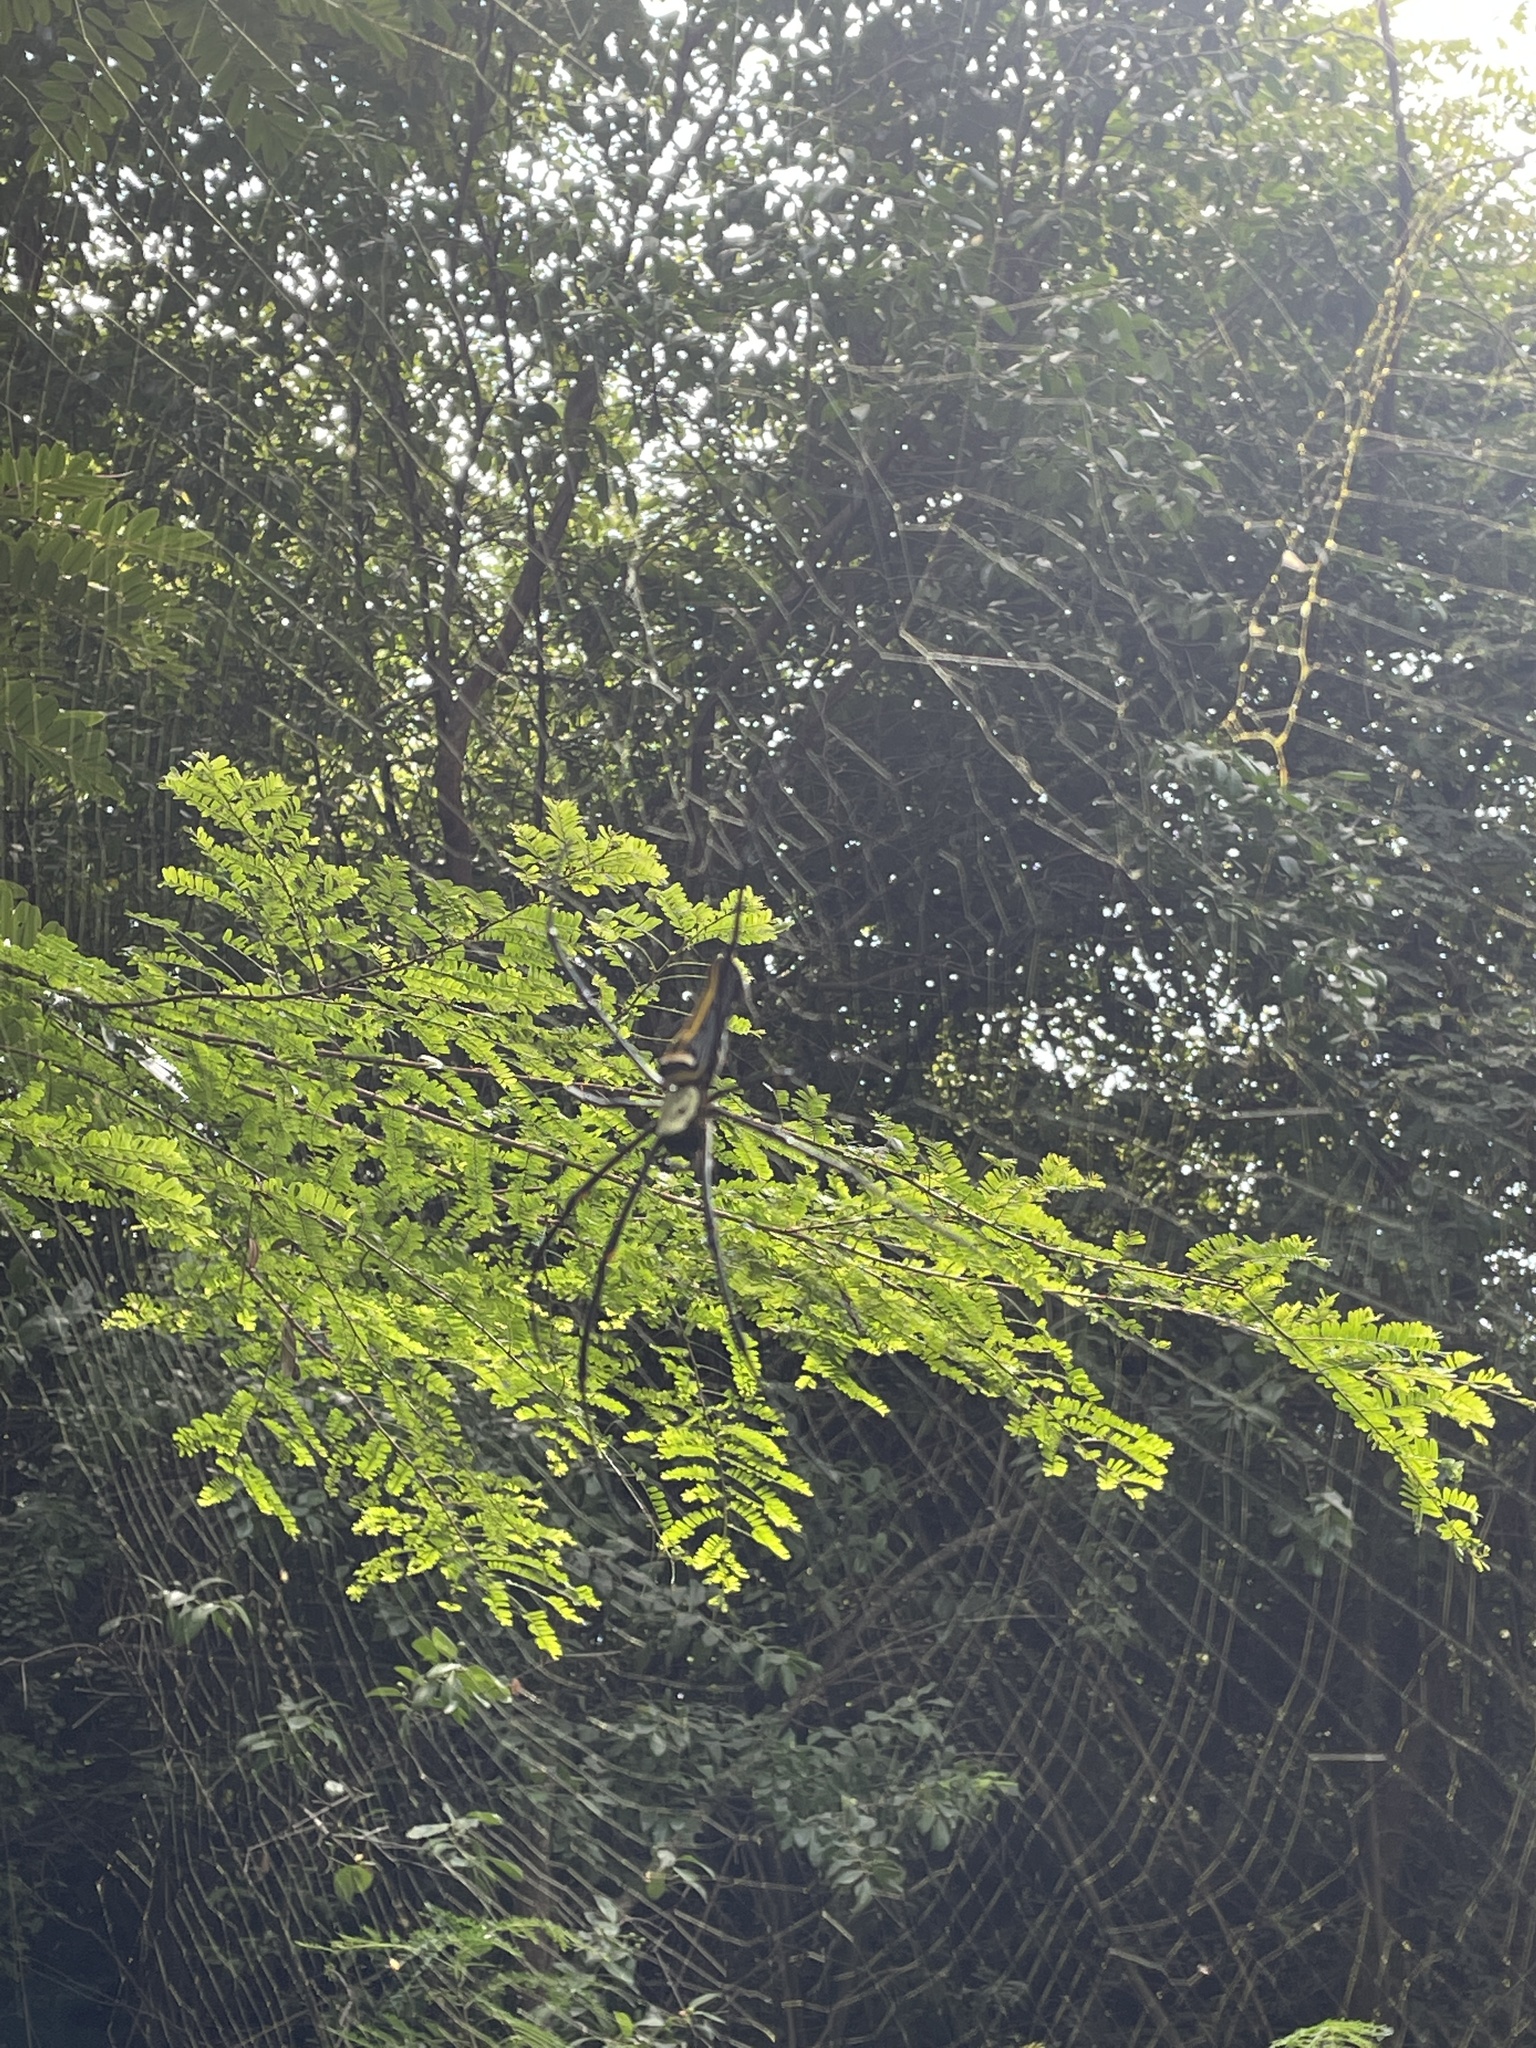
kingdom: Animalia
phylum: Arthropoda
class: Arachnida
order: Araneae
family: Araneidae
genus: Nephila
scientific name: Nephila pilipes
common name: Giant golden orb weaver
